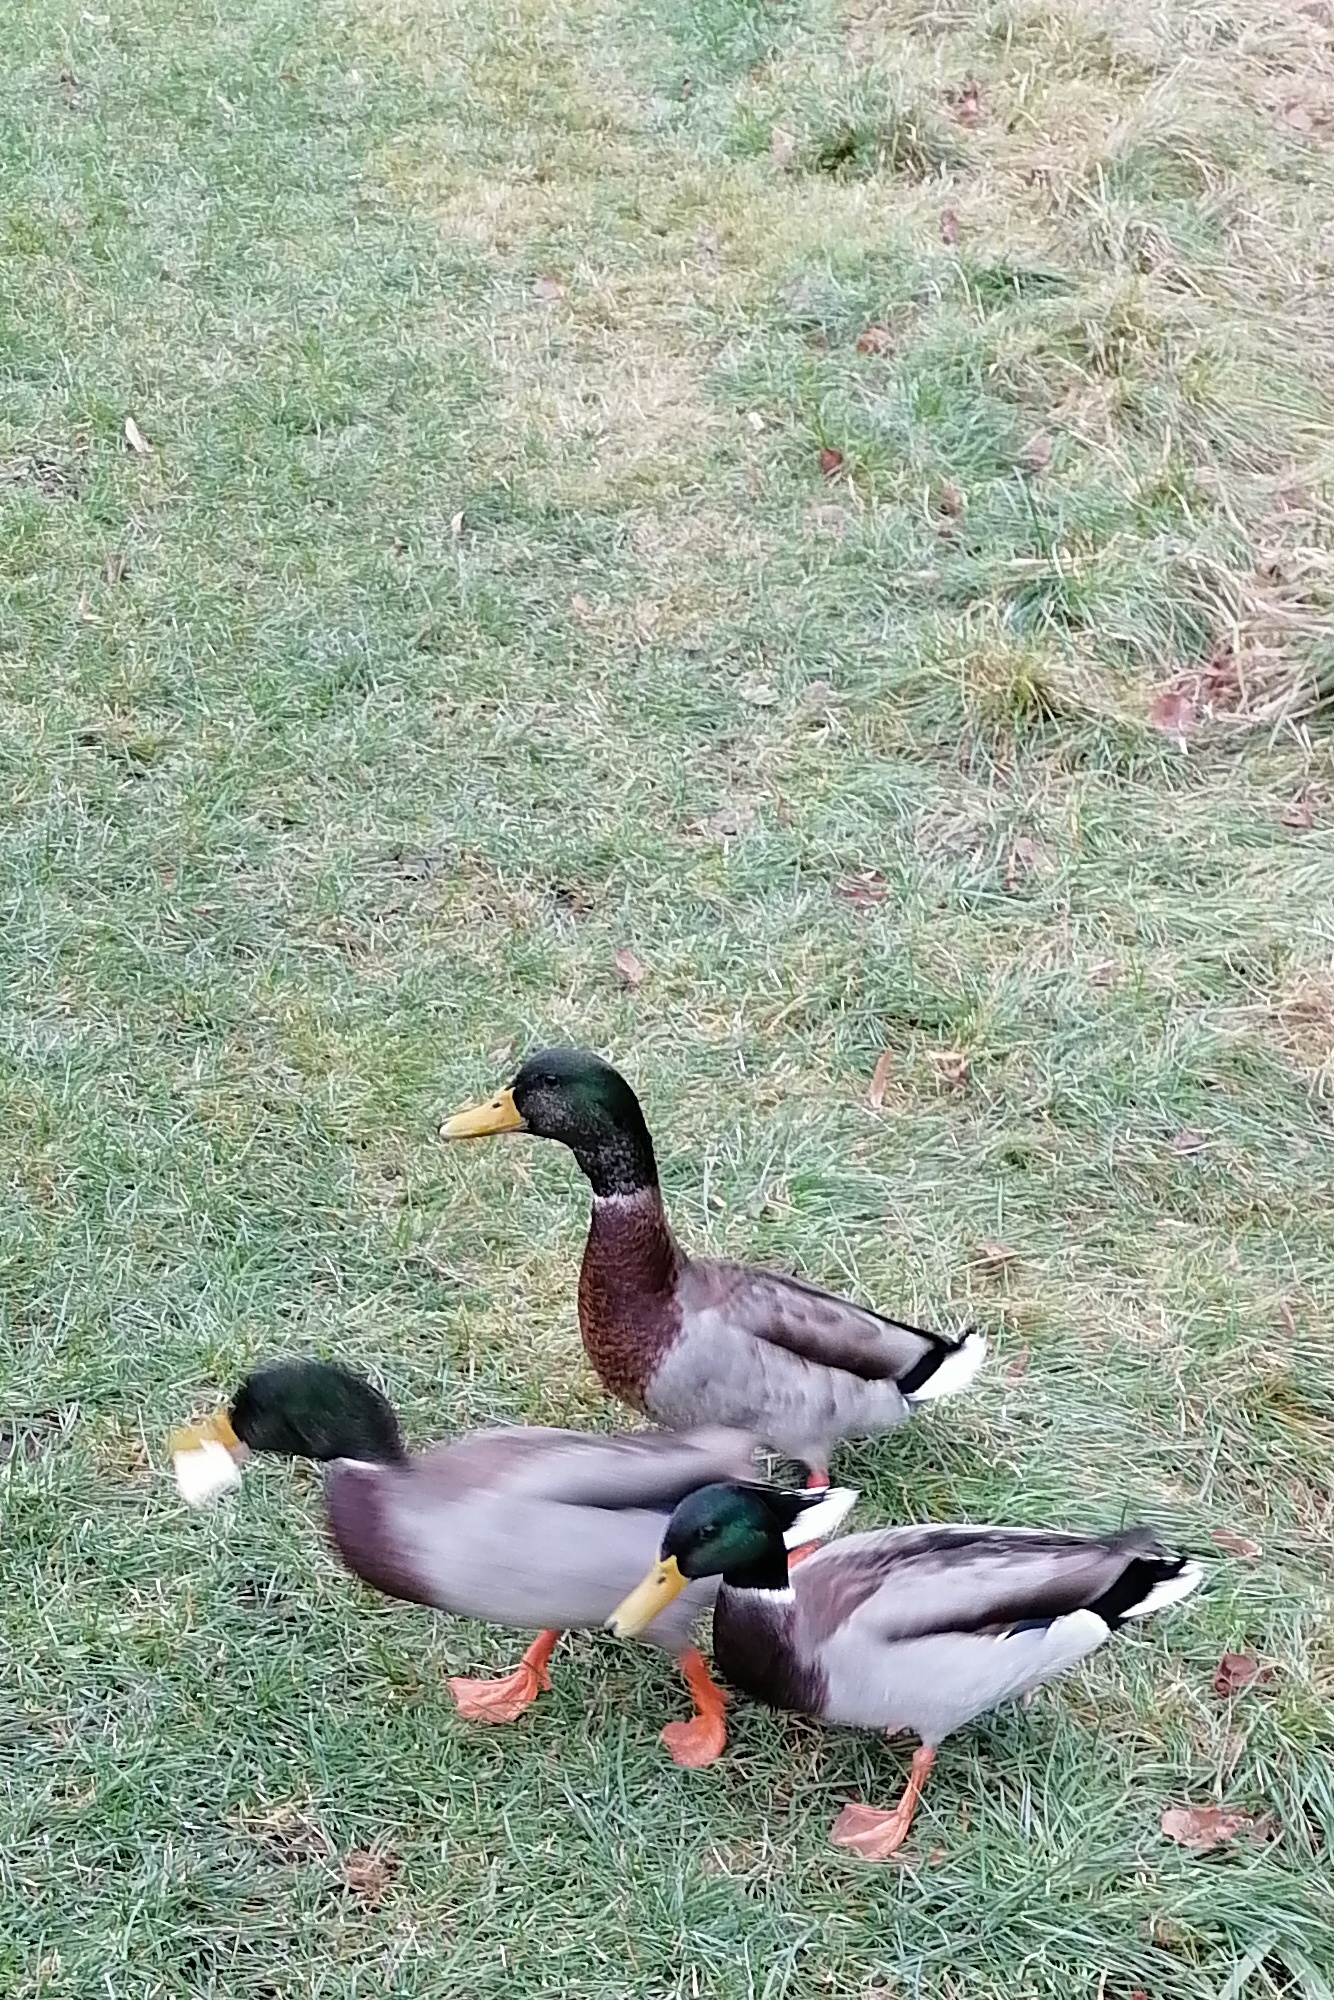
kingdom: Animalia
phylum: Chordata
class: Aves
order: Anseriformes
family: Anatidae
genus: Anas
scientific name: Anas platyrhynchos
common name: Mallard
